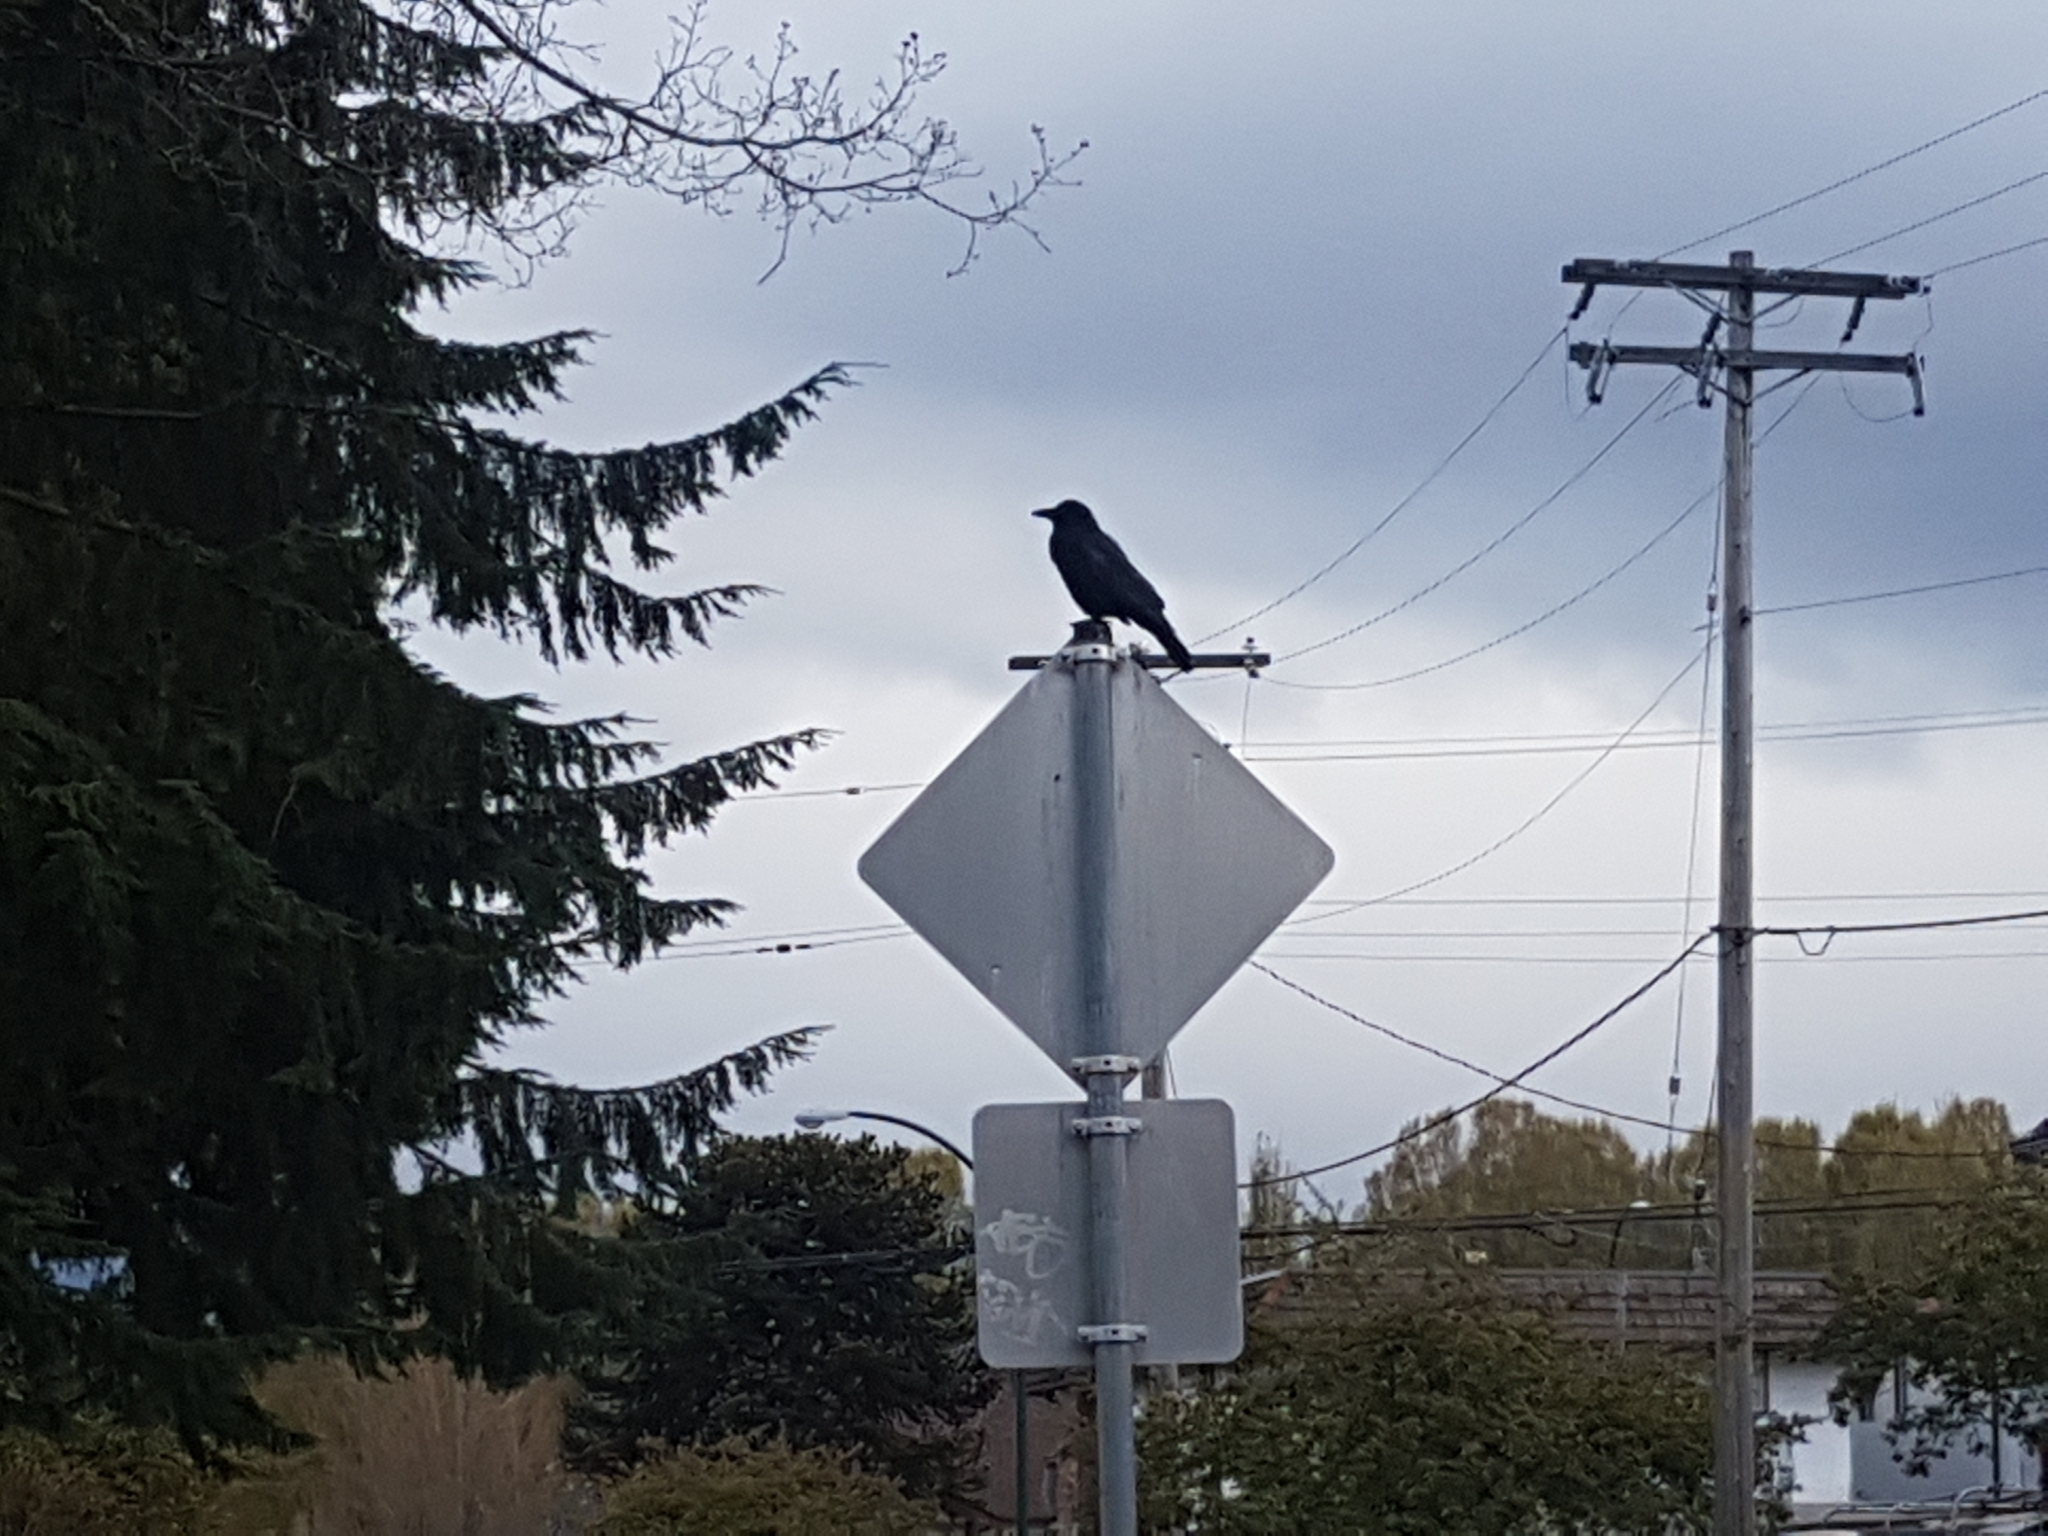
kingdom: Animalia
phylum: Chordata
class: Aves
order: Passeriformes
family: Corvidae
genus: Corvus
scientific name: Corvus brachyrhynchos
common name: American crow
